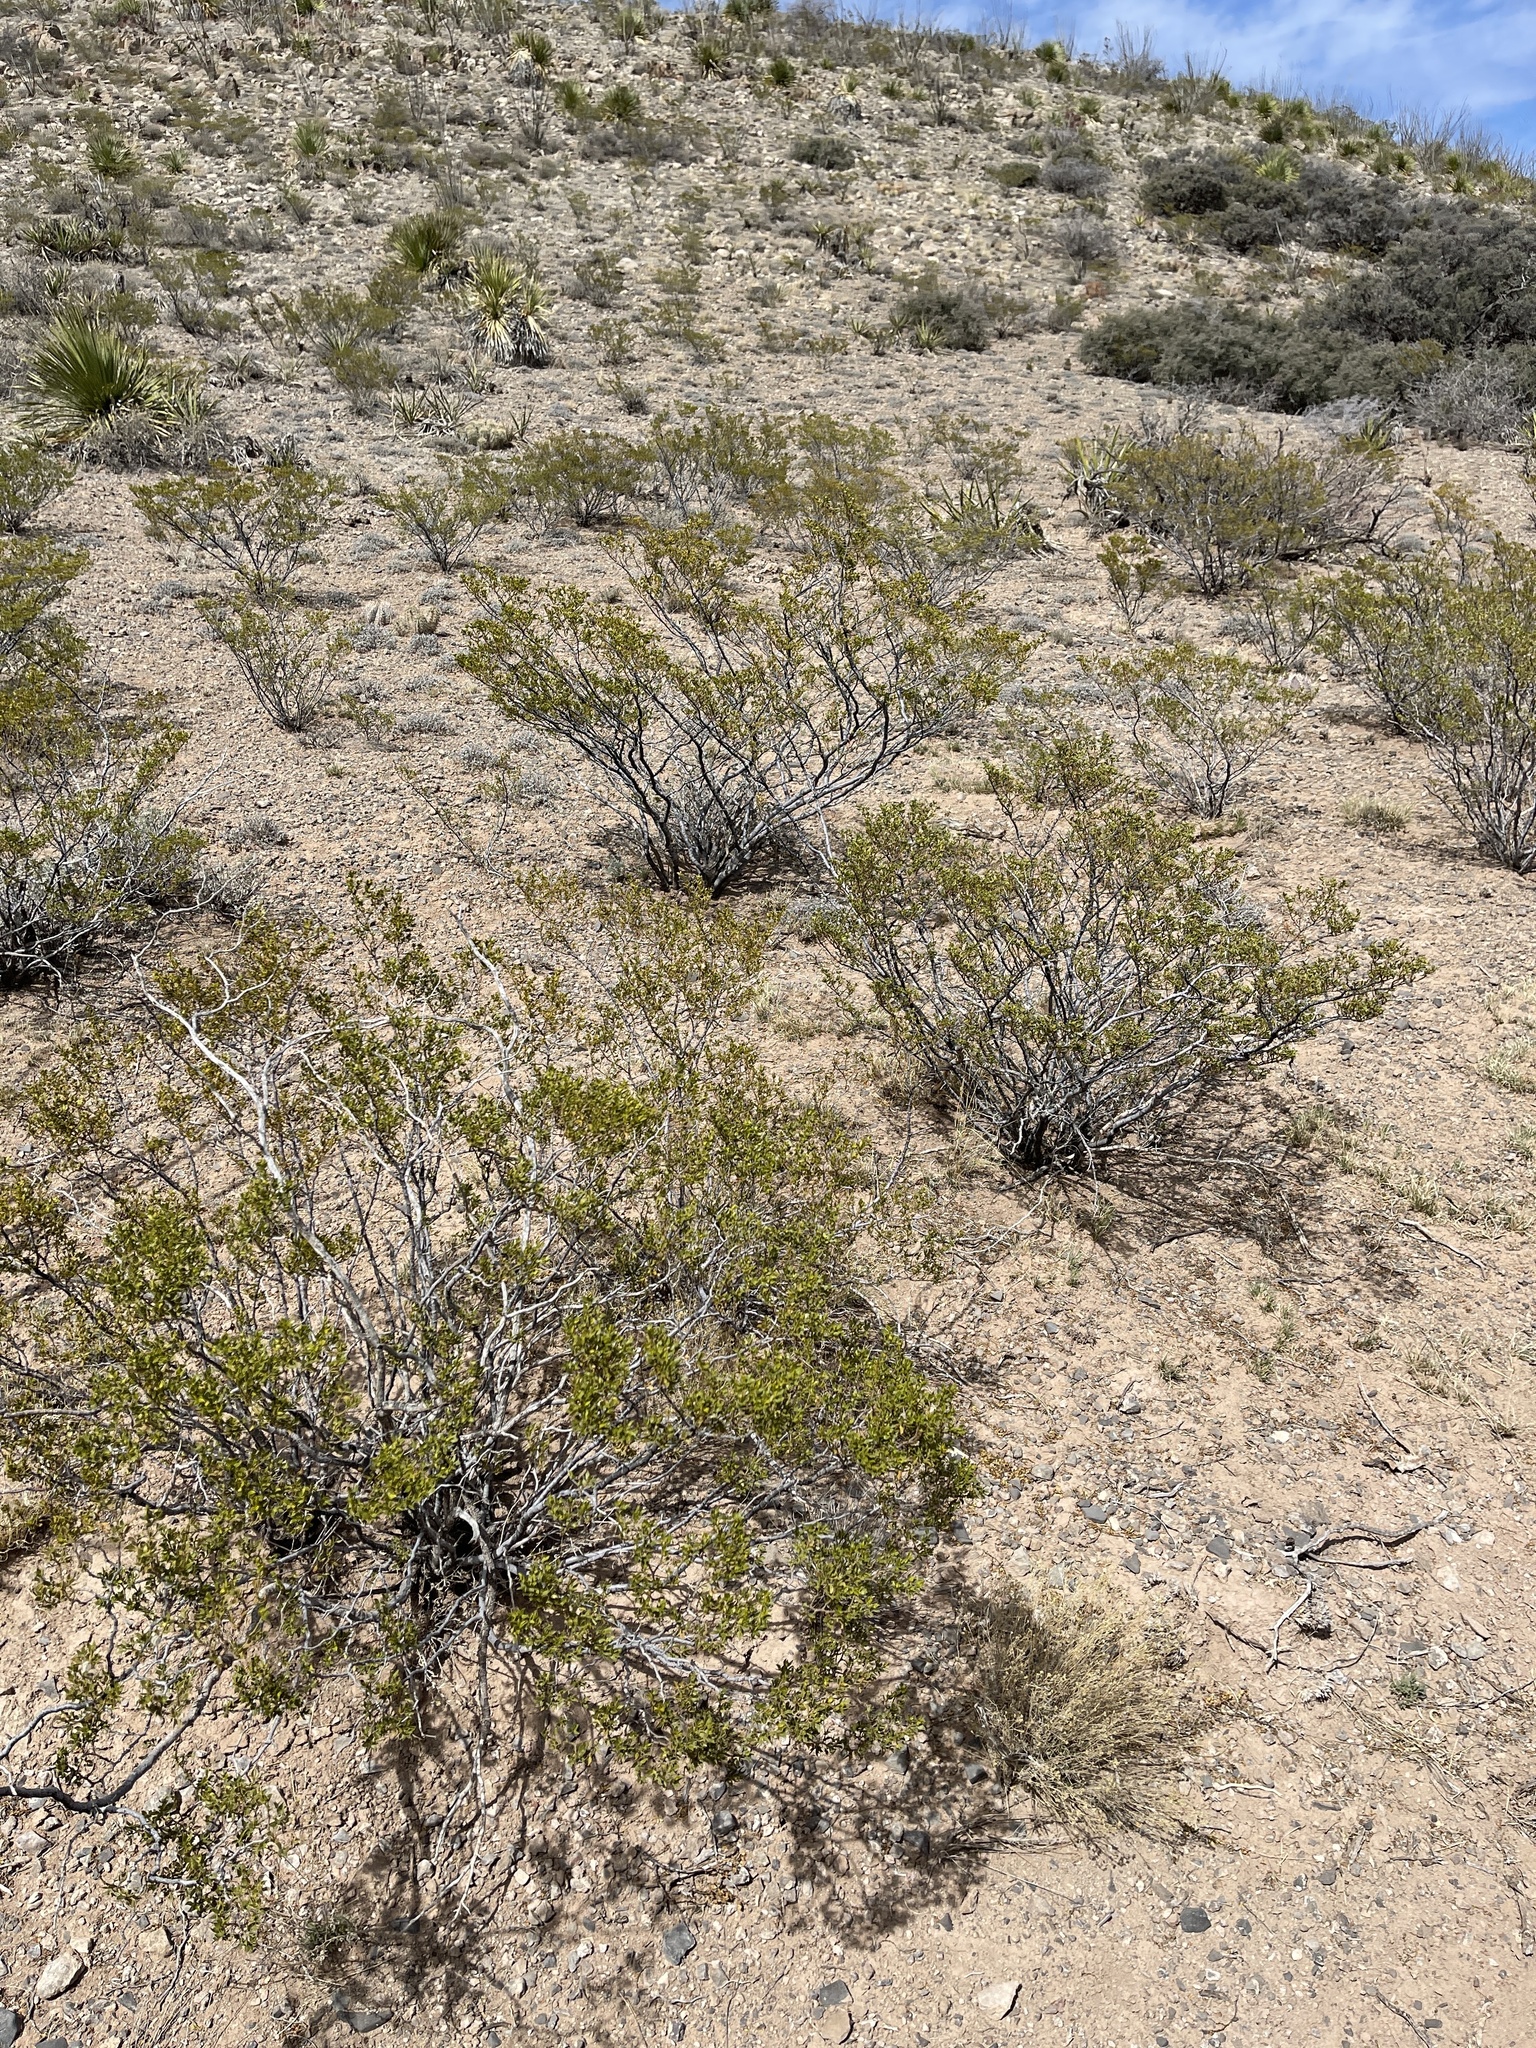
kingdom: Plantae
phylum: Tracheophyta
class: Magnoliopsida
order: Zygophyllales
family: Zygophyllaceae
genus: Larrea
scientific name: Larrea tridentata
